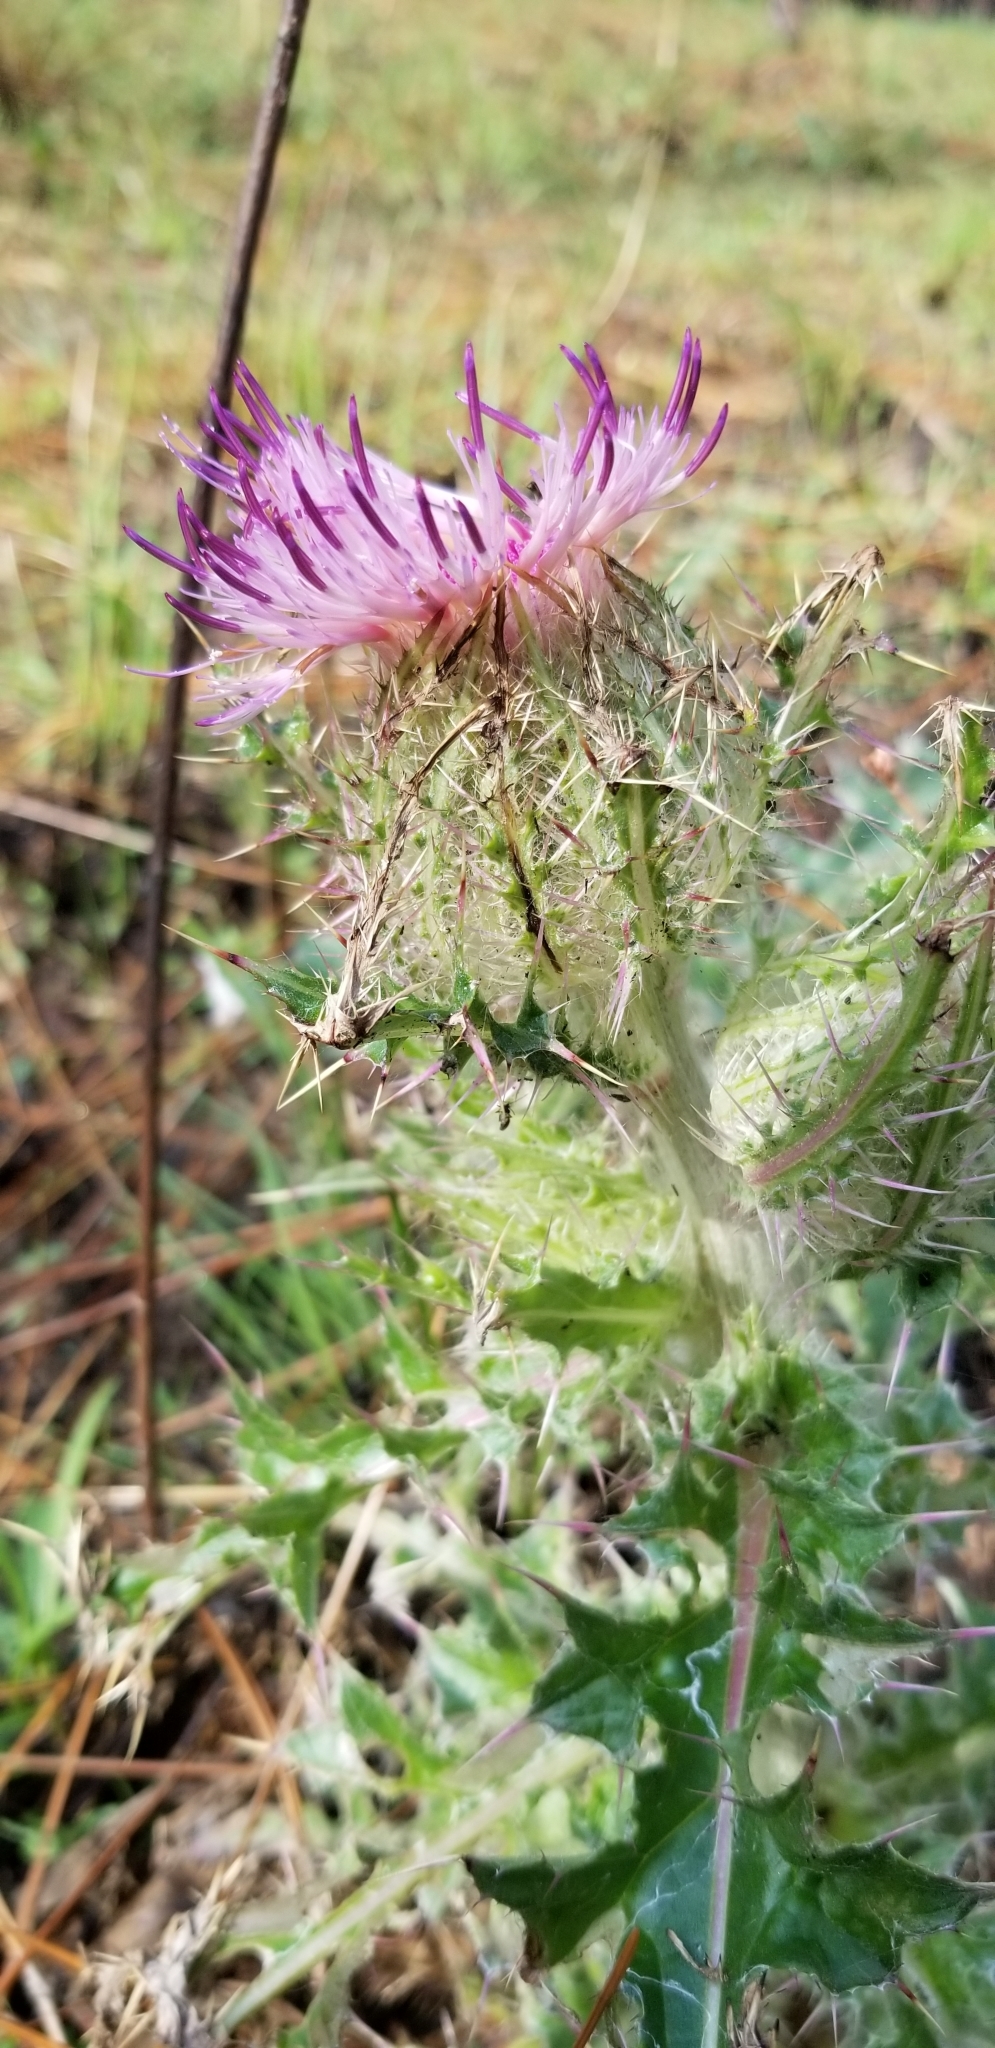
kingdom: Plantae
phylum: Tracheophyta
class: Magnoliopsida
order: Asterales
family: Asteraceae
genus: Cirsium
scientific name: Cirsium horridulum
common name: Bristly thistle
